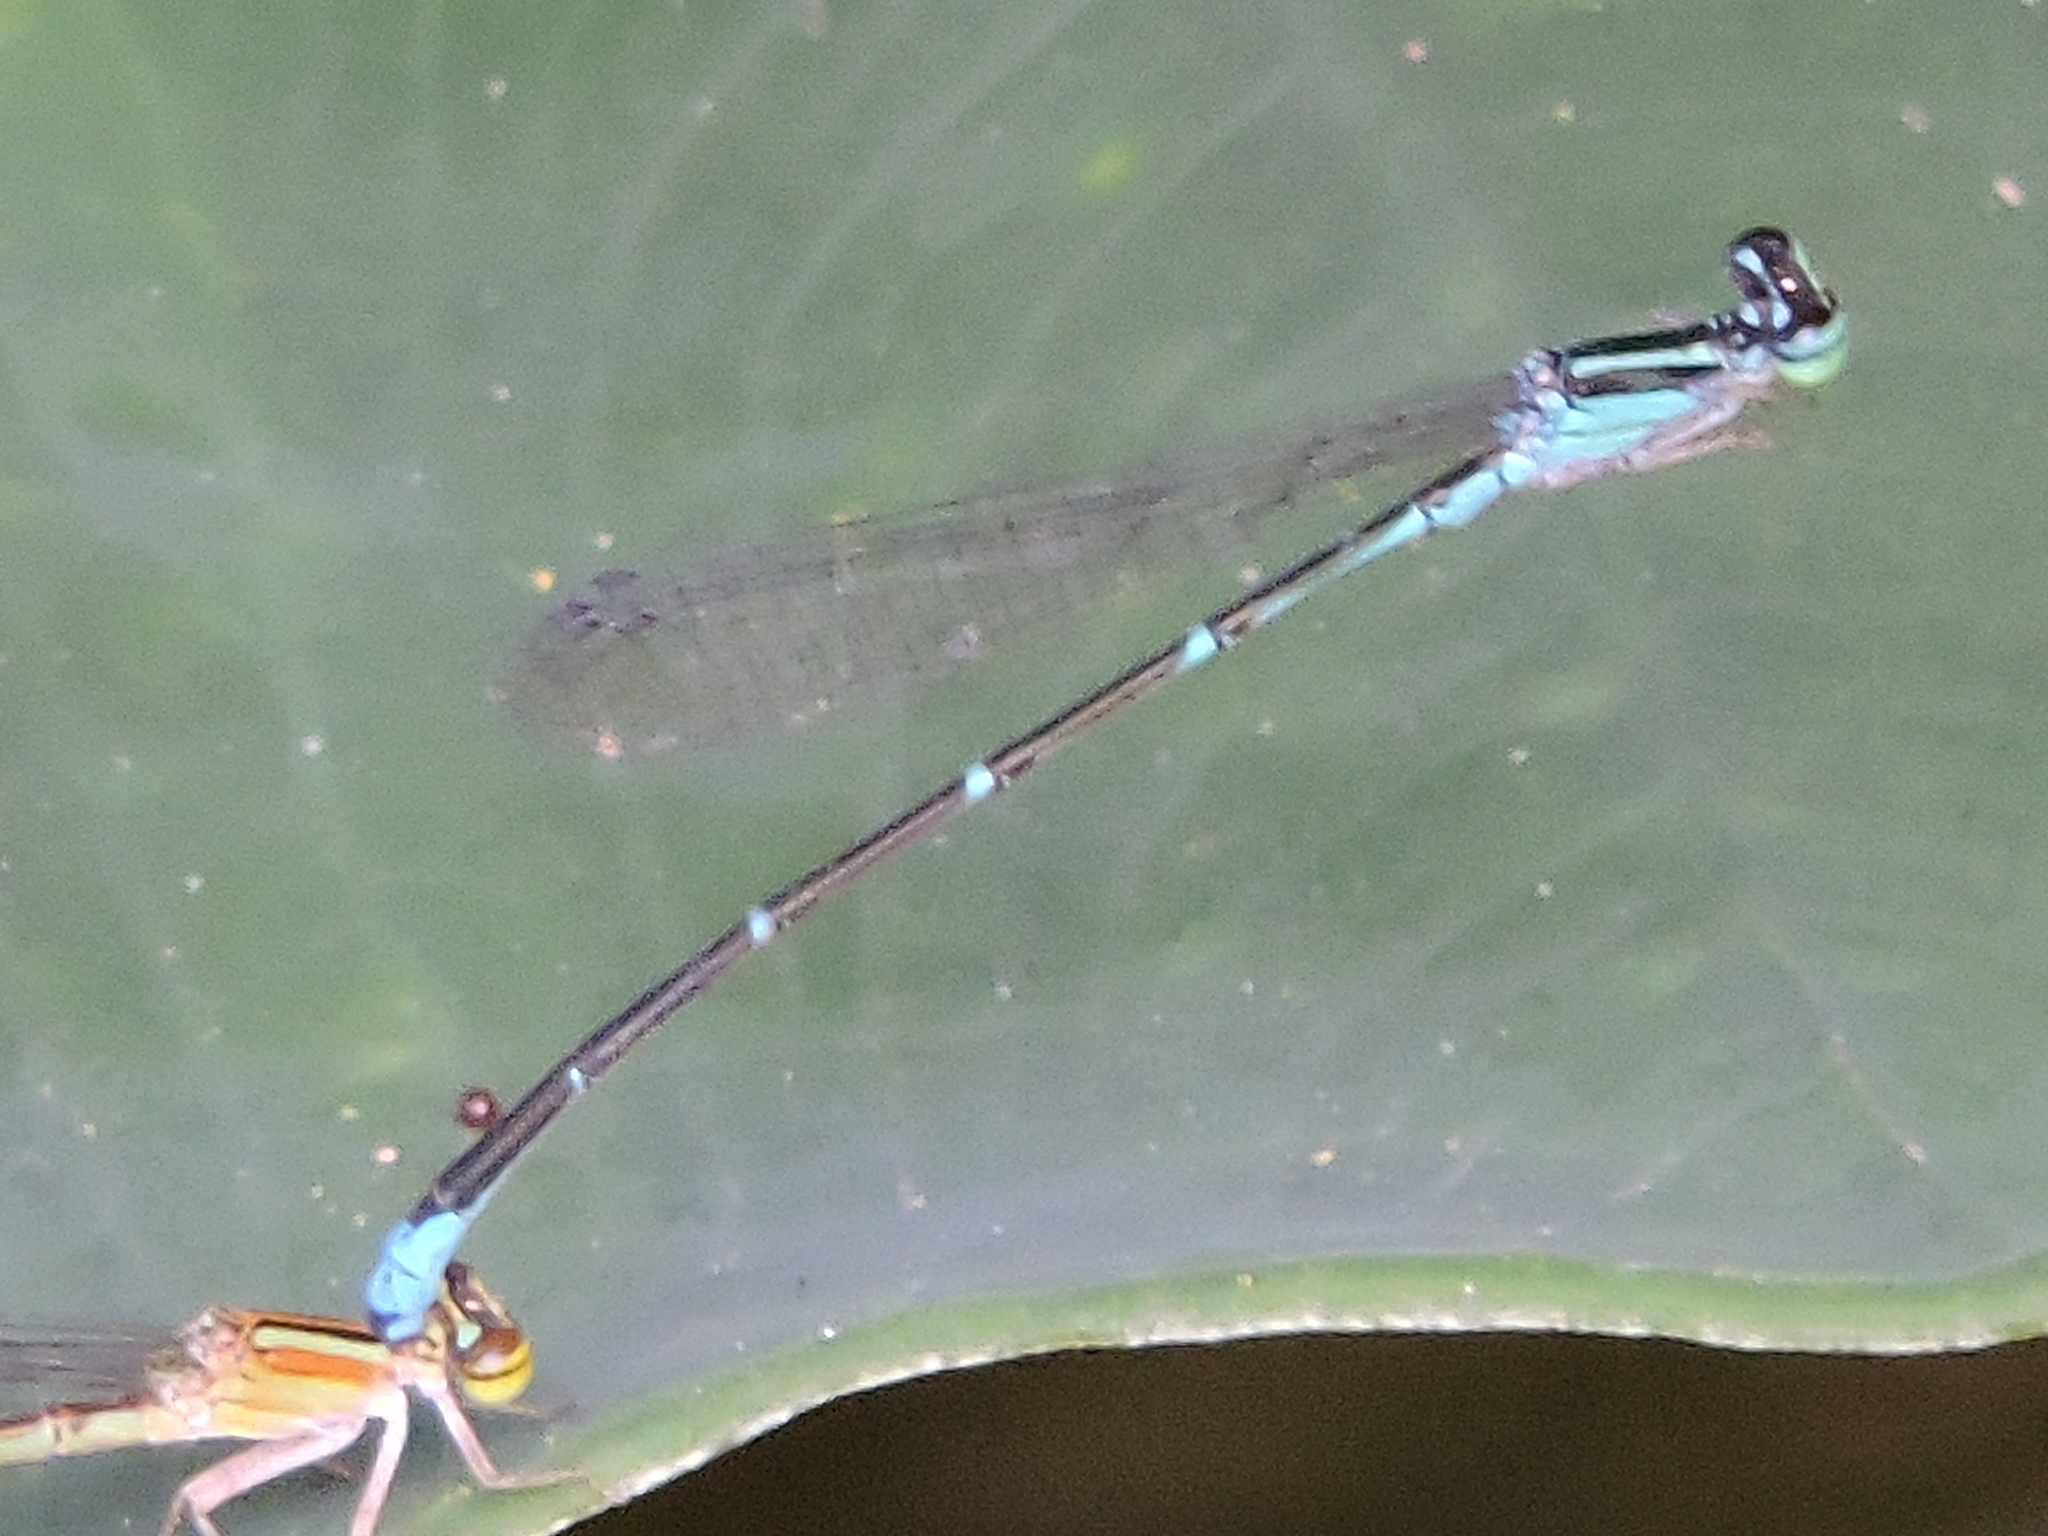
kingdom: Animalia
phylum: Arthropoda
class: Insecta
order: Odonata
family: Coenagrionidae
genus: Enallagma
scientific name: Enallagma exsulans
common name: Stream bluet
